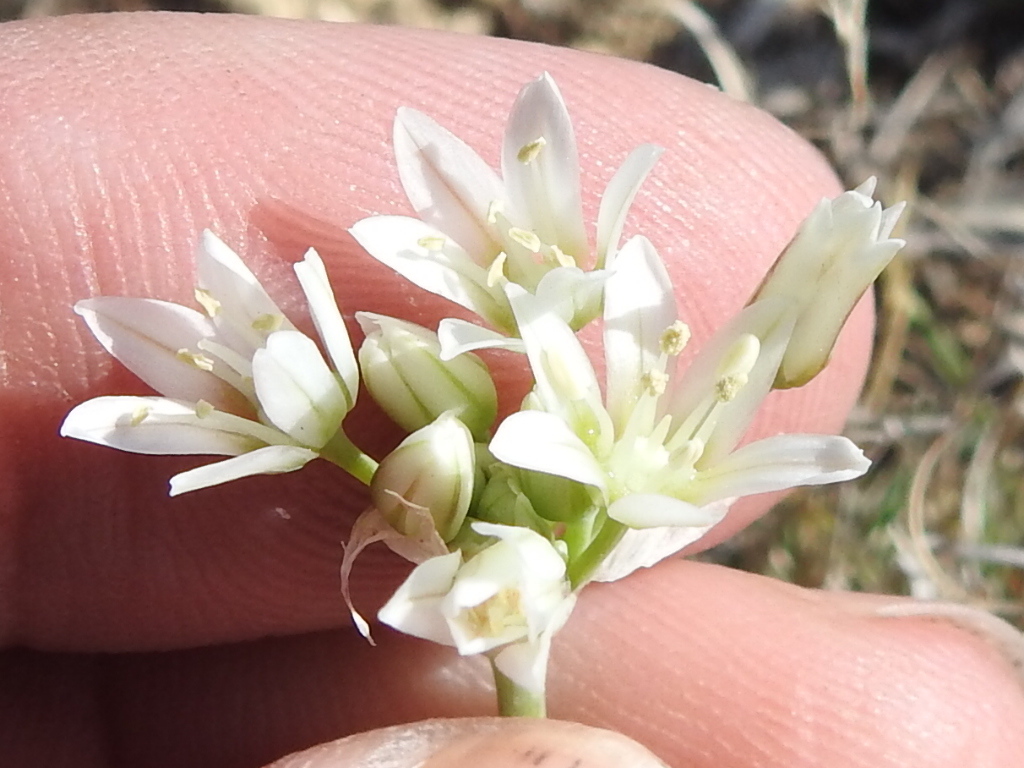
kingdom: Plantae
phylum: Tracheophyta
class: Liliopsida
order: Asparagales
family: Amaryllidaceae
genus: Allium
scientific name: Allium drummondii
